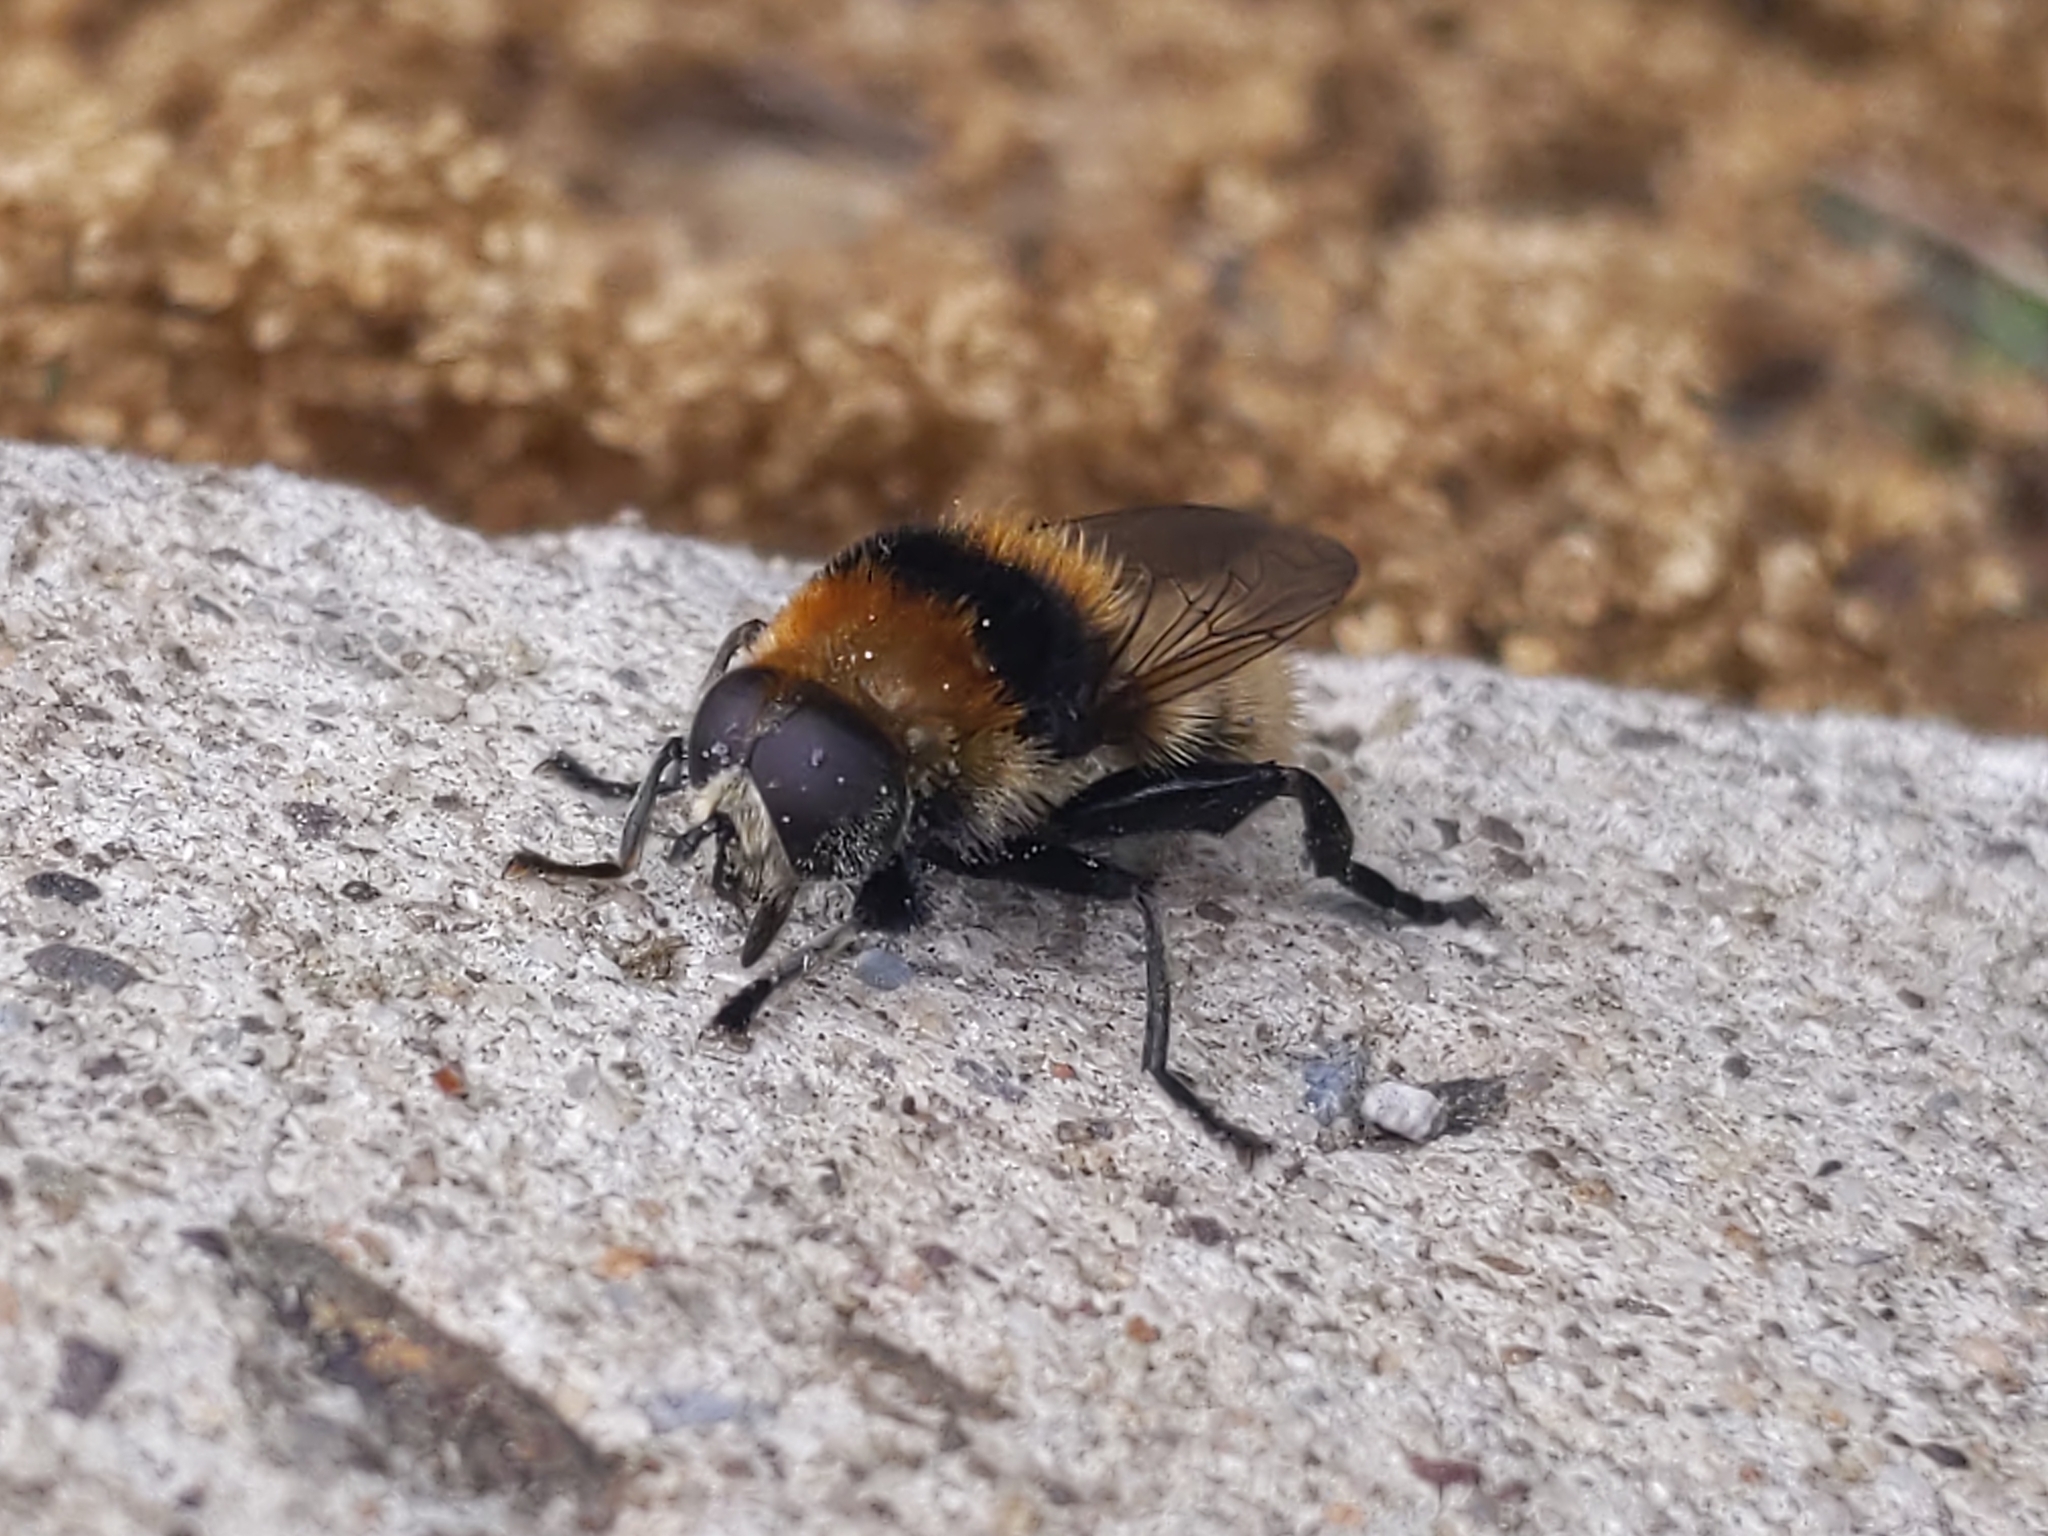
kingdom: Animalia
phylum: Arthropoda
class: Insecta
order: Diptera
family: Syrphidae
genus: Merodon
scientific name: Merodon equestris
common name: Greater bulb-fly
